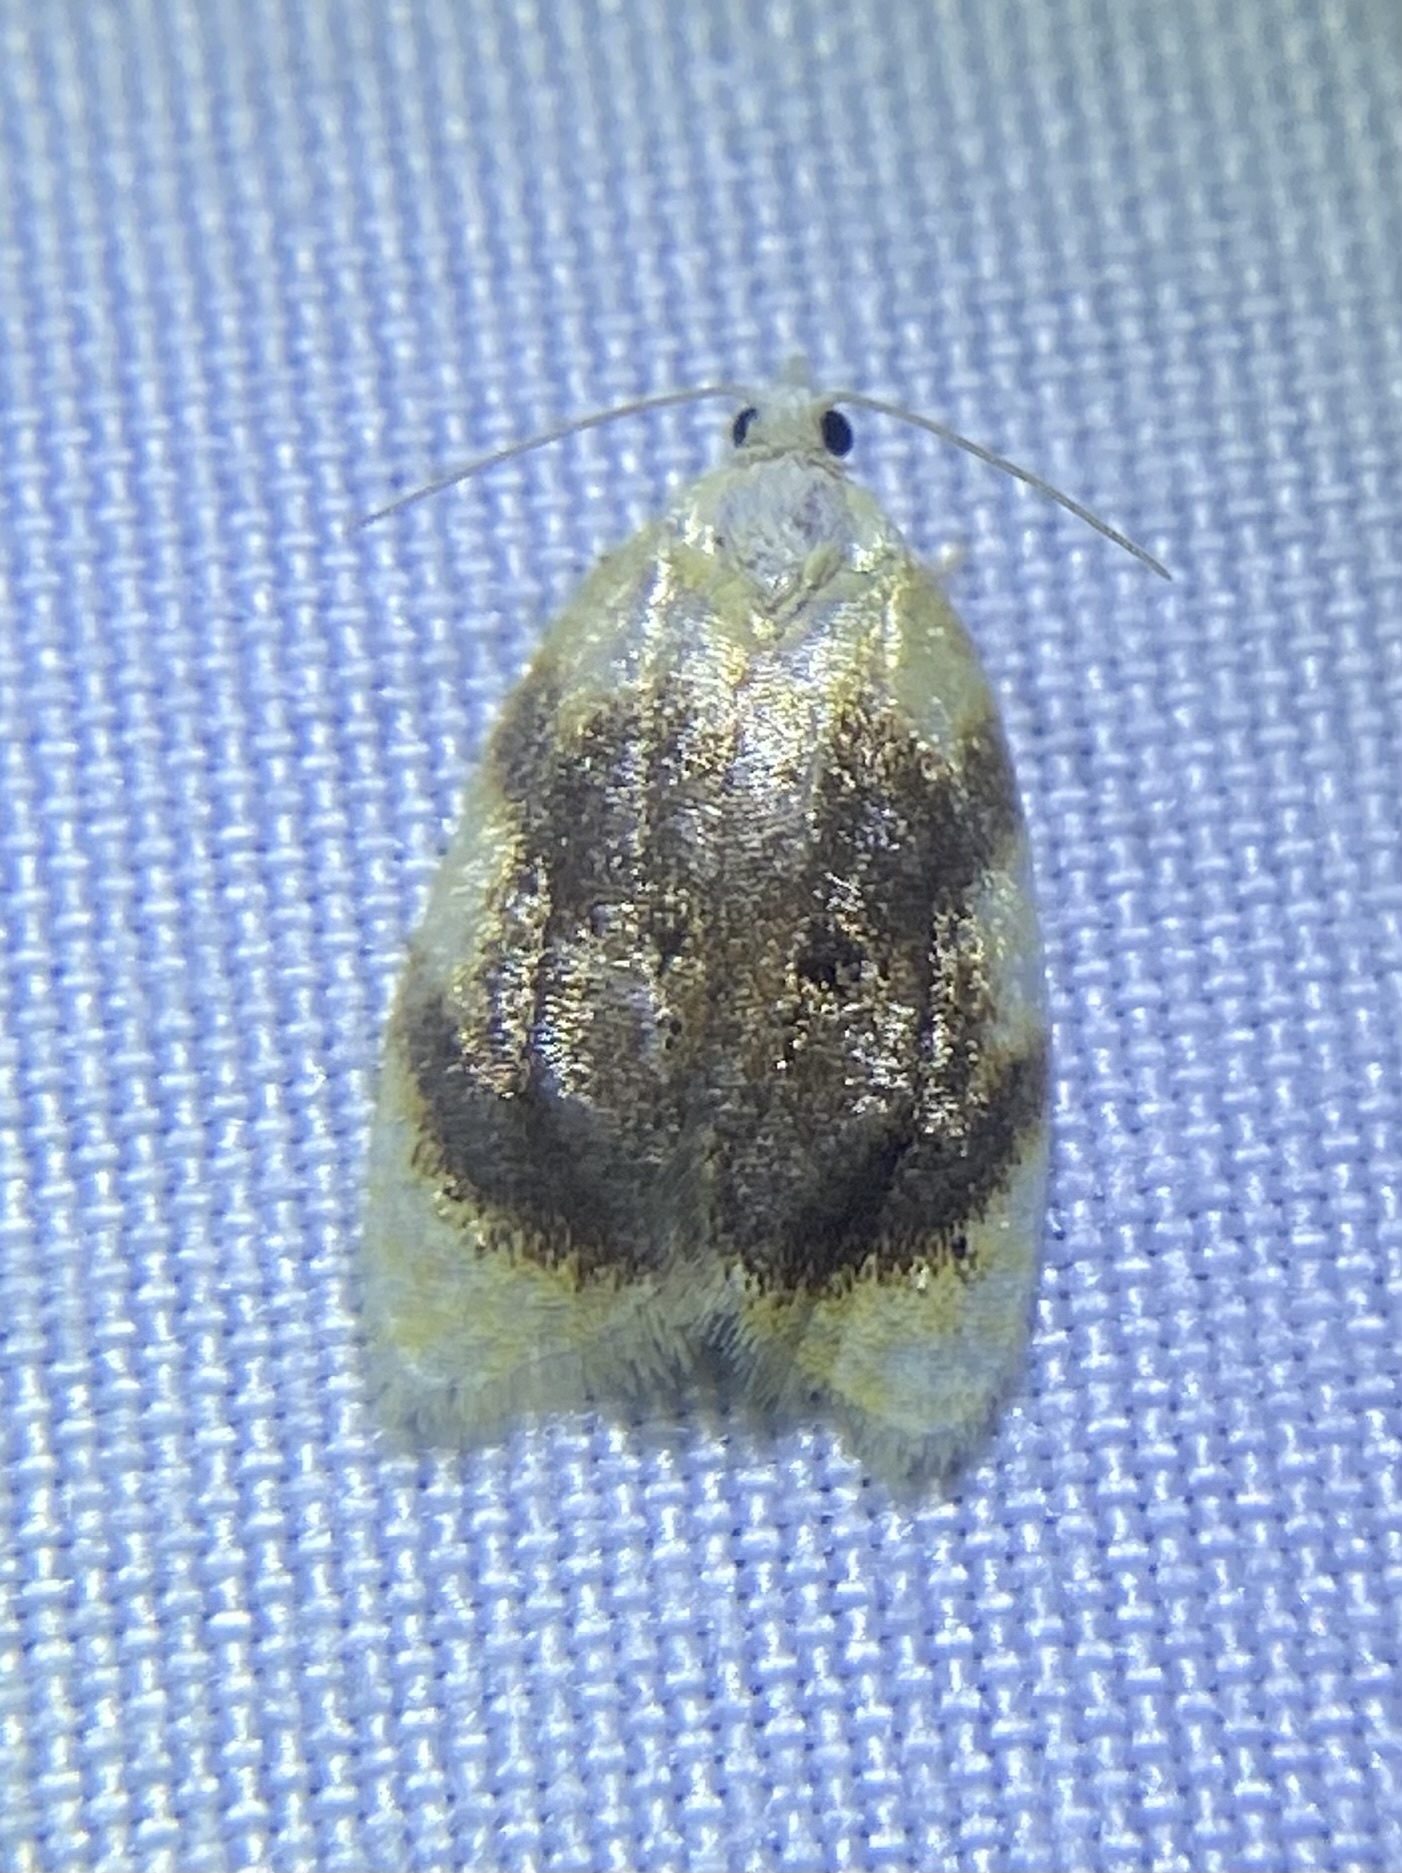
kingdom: Animalia
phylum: Arthropoda
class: Insecta
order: Lepidoptera
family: Tortricidae
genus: Acleris
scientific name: Acleris semipurpurana
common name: Oak leaftier moth
